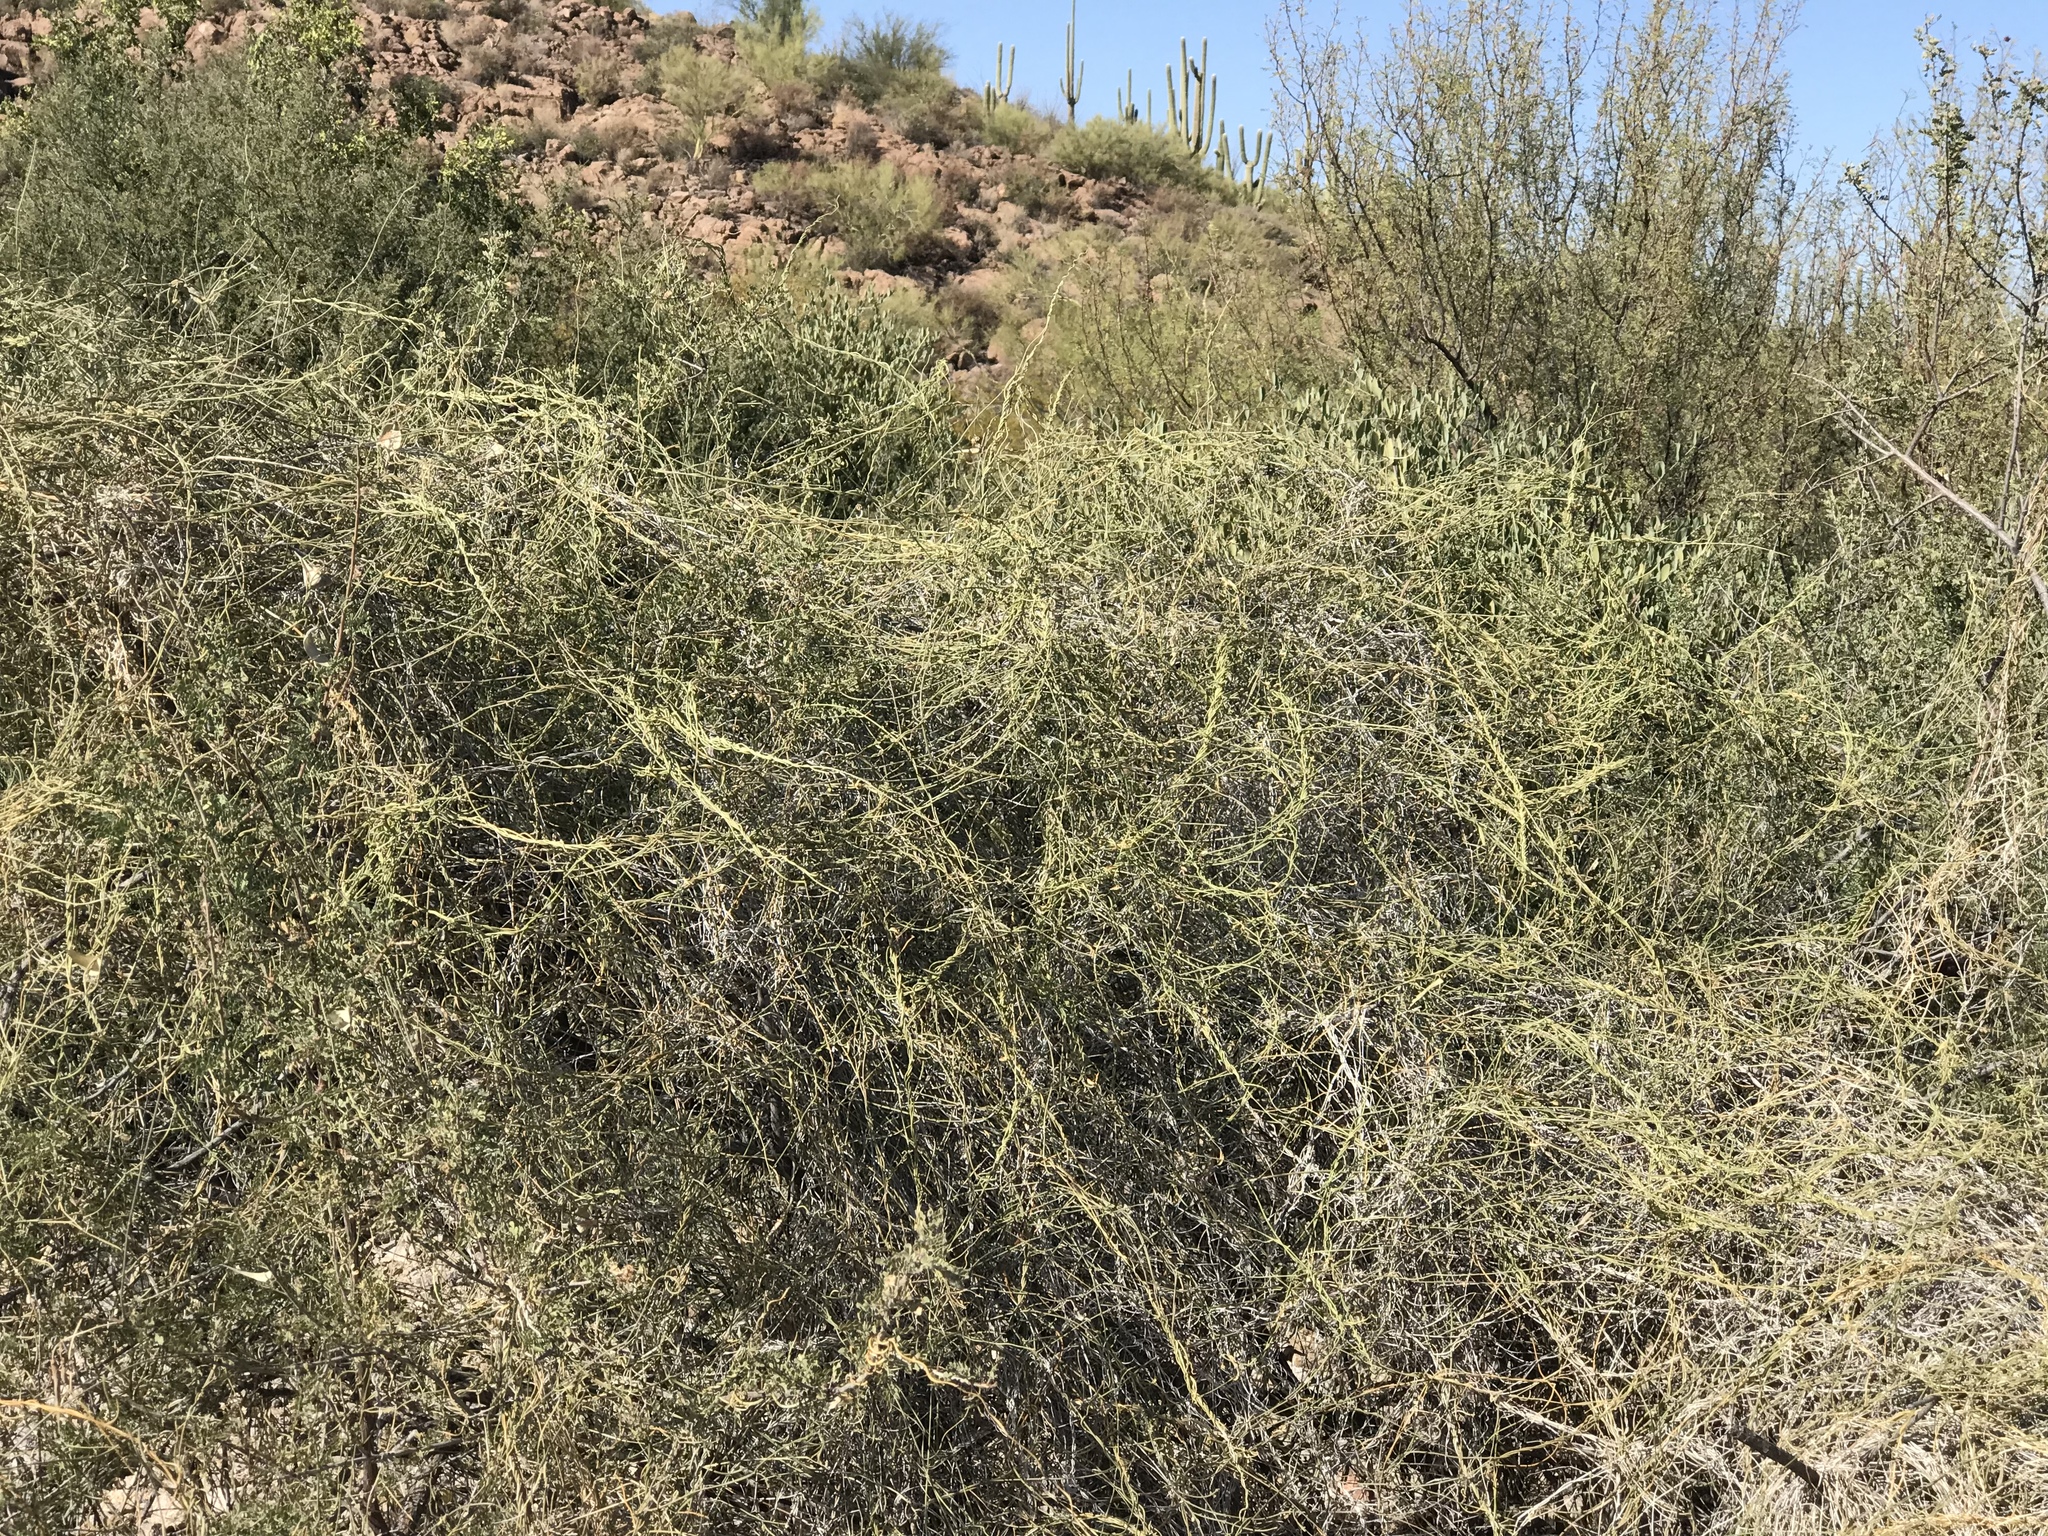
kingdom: Plantae
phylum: Tracheophyta
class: Magnoliopsida
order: Gentianales
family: Apocynaceae
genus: Funastrum
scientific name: Funastrum heterophyllum
